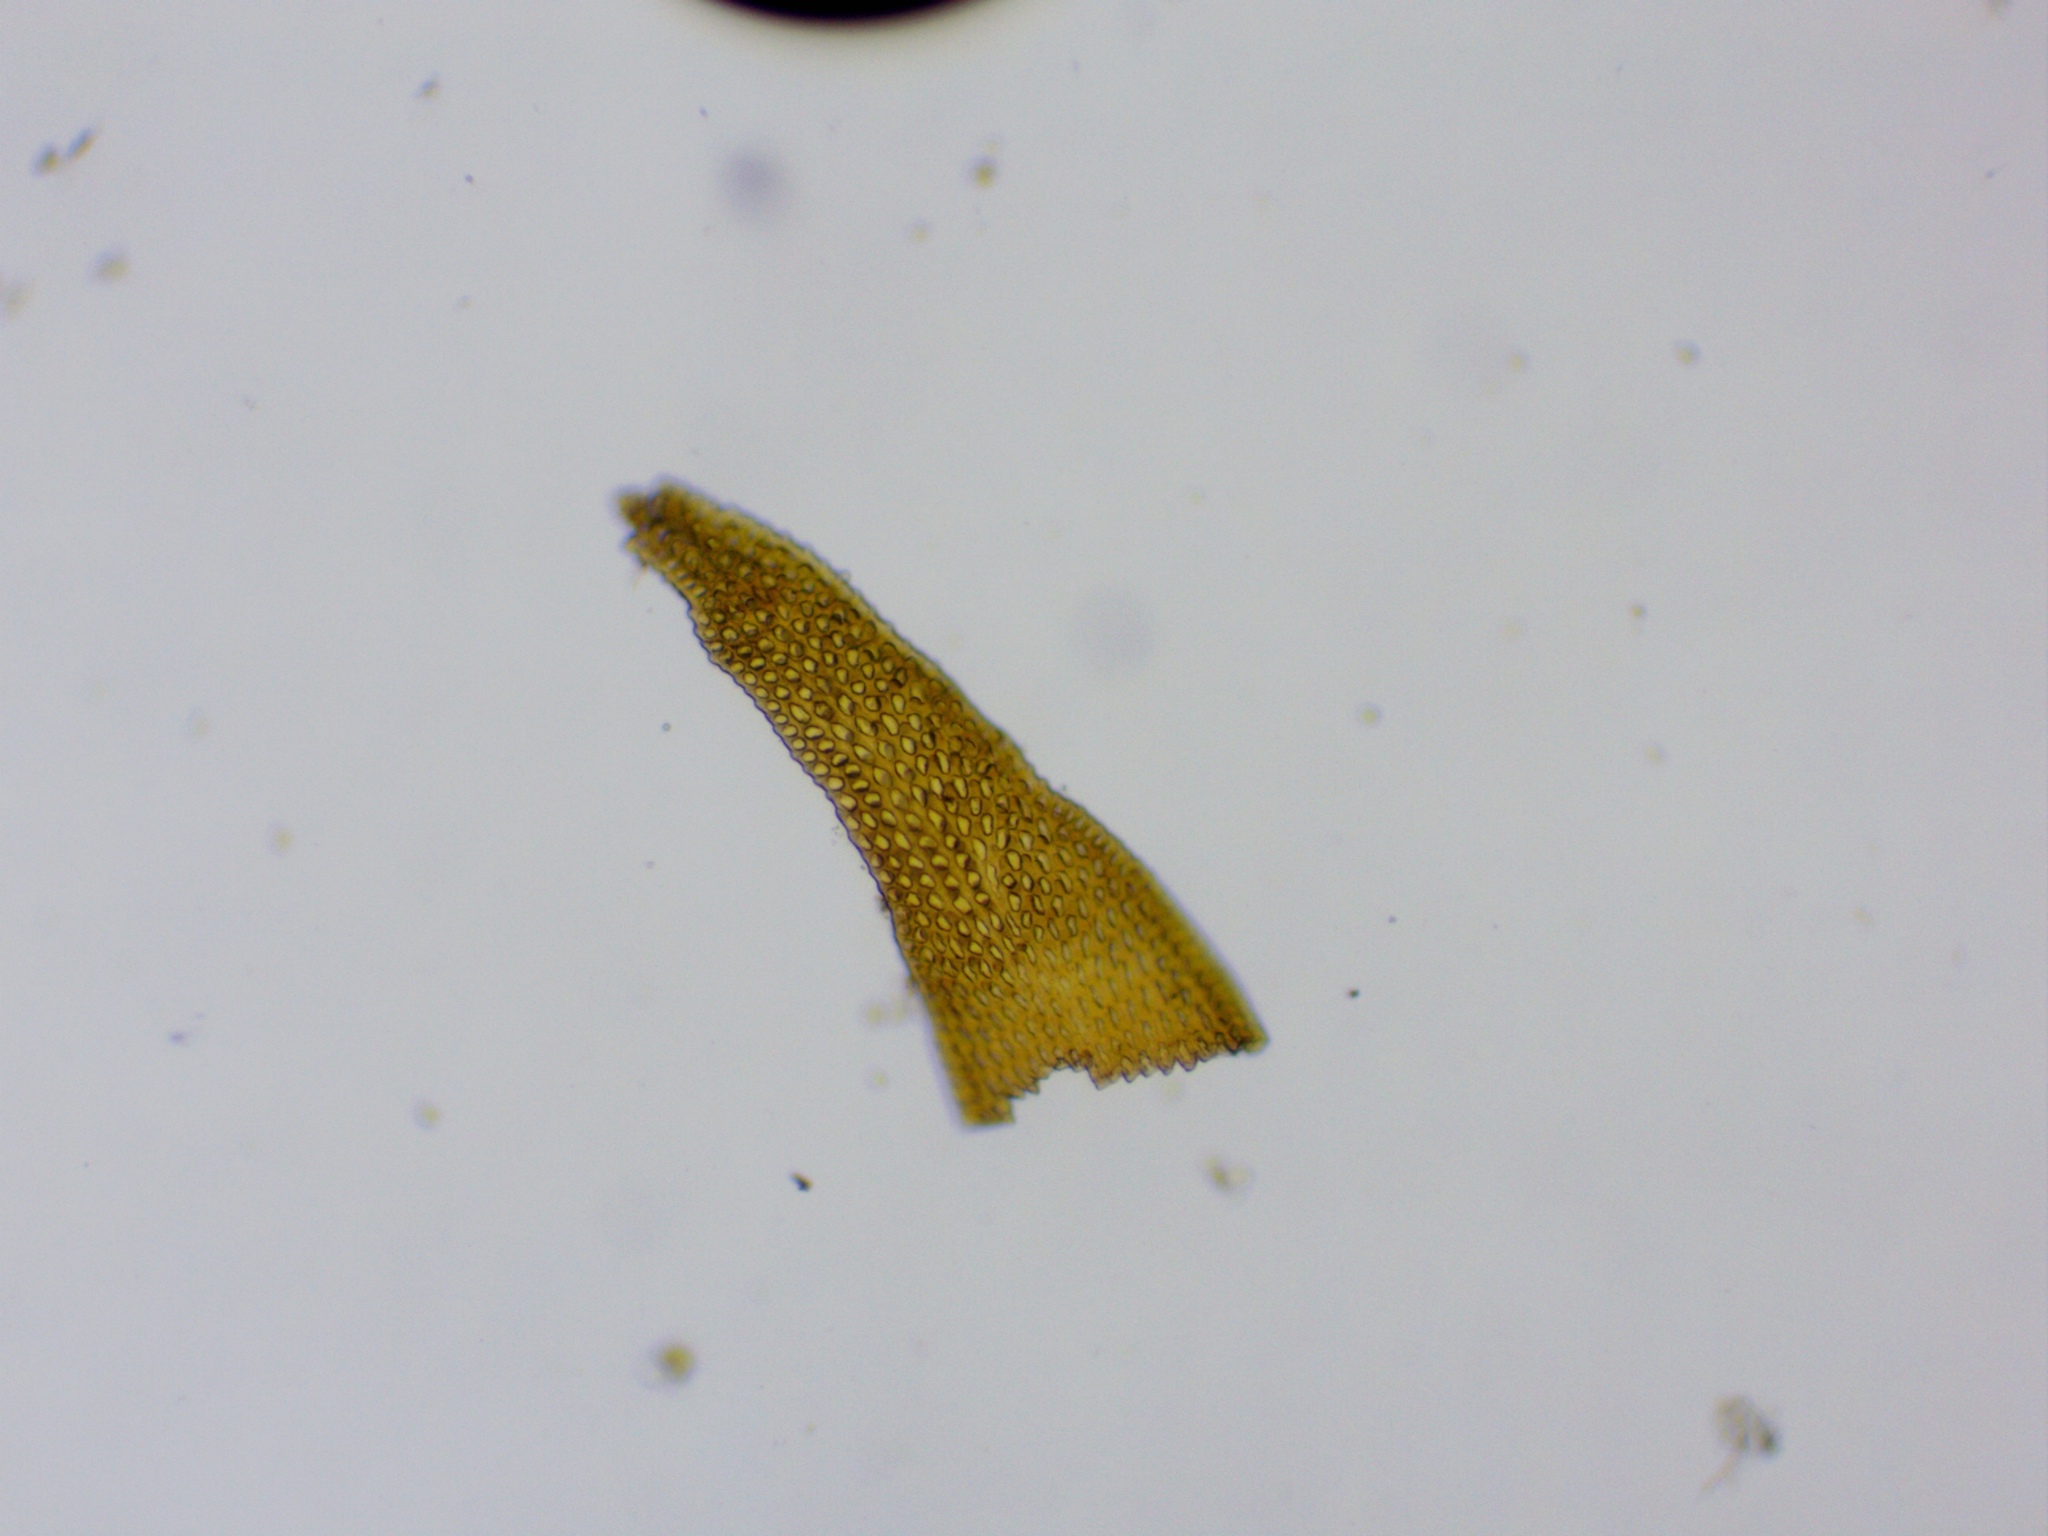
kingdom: Plantae
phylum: Bryophyta
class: Andreaeopsida
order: Andreaeales
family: Andreaeaceae
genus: Andreaea
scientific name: Andreaea rupestris
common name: Black rock moss
